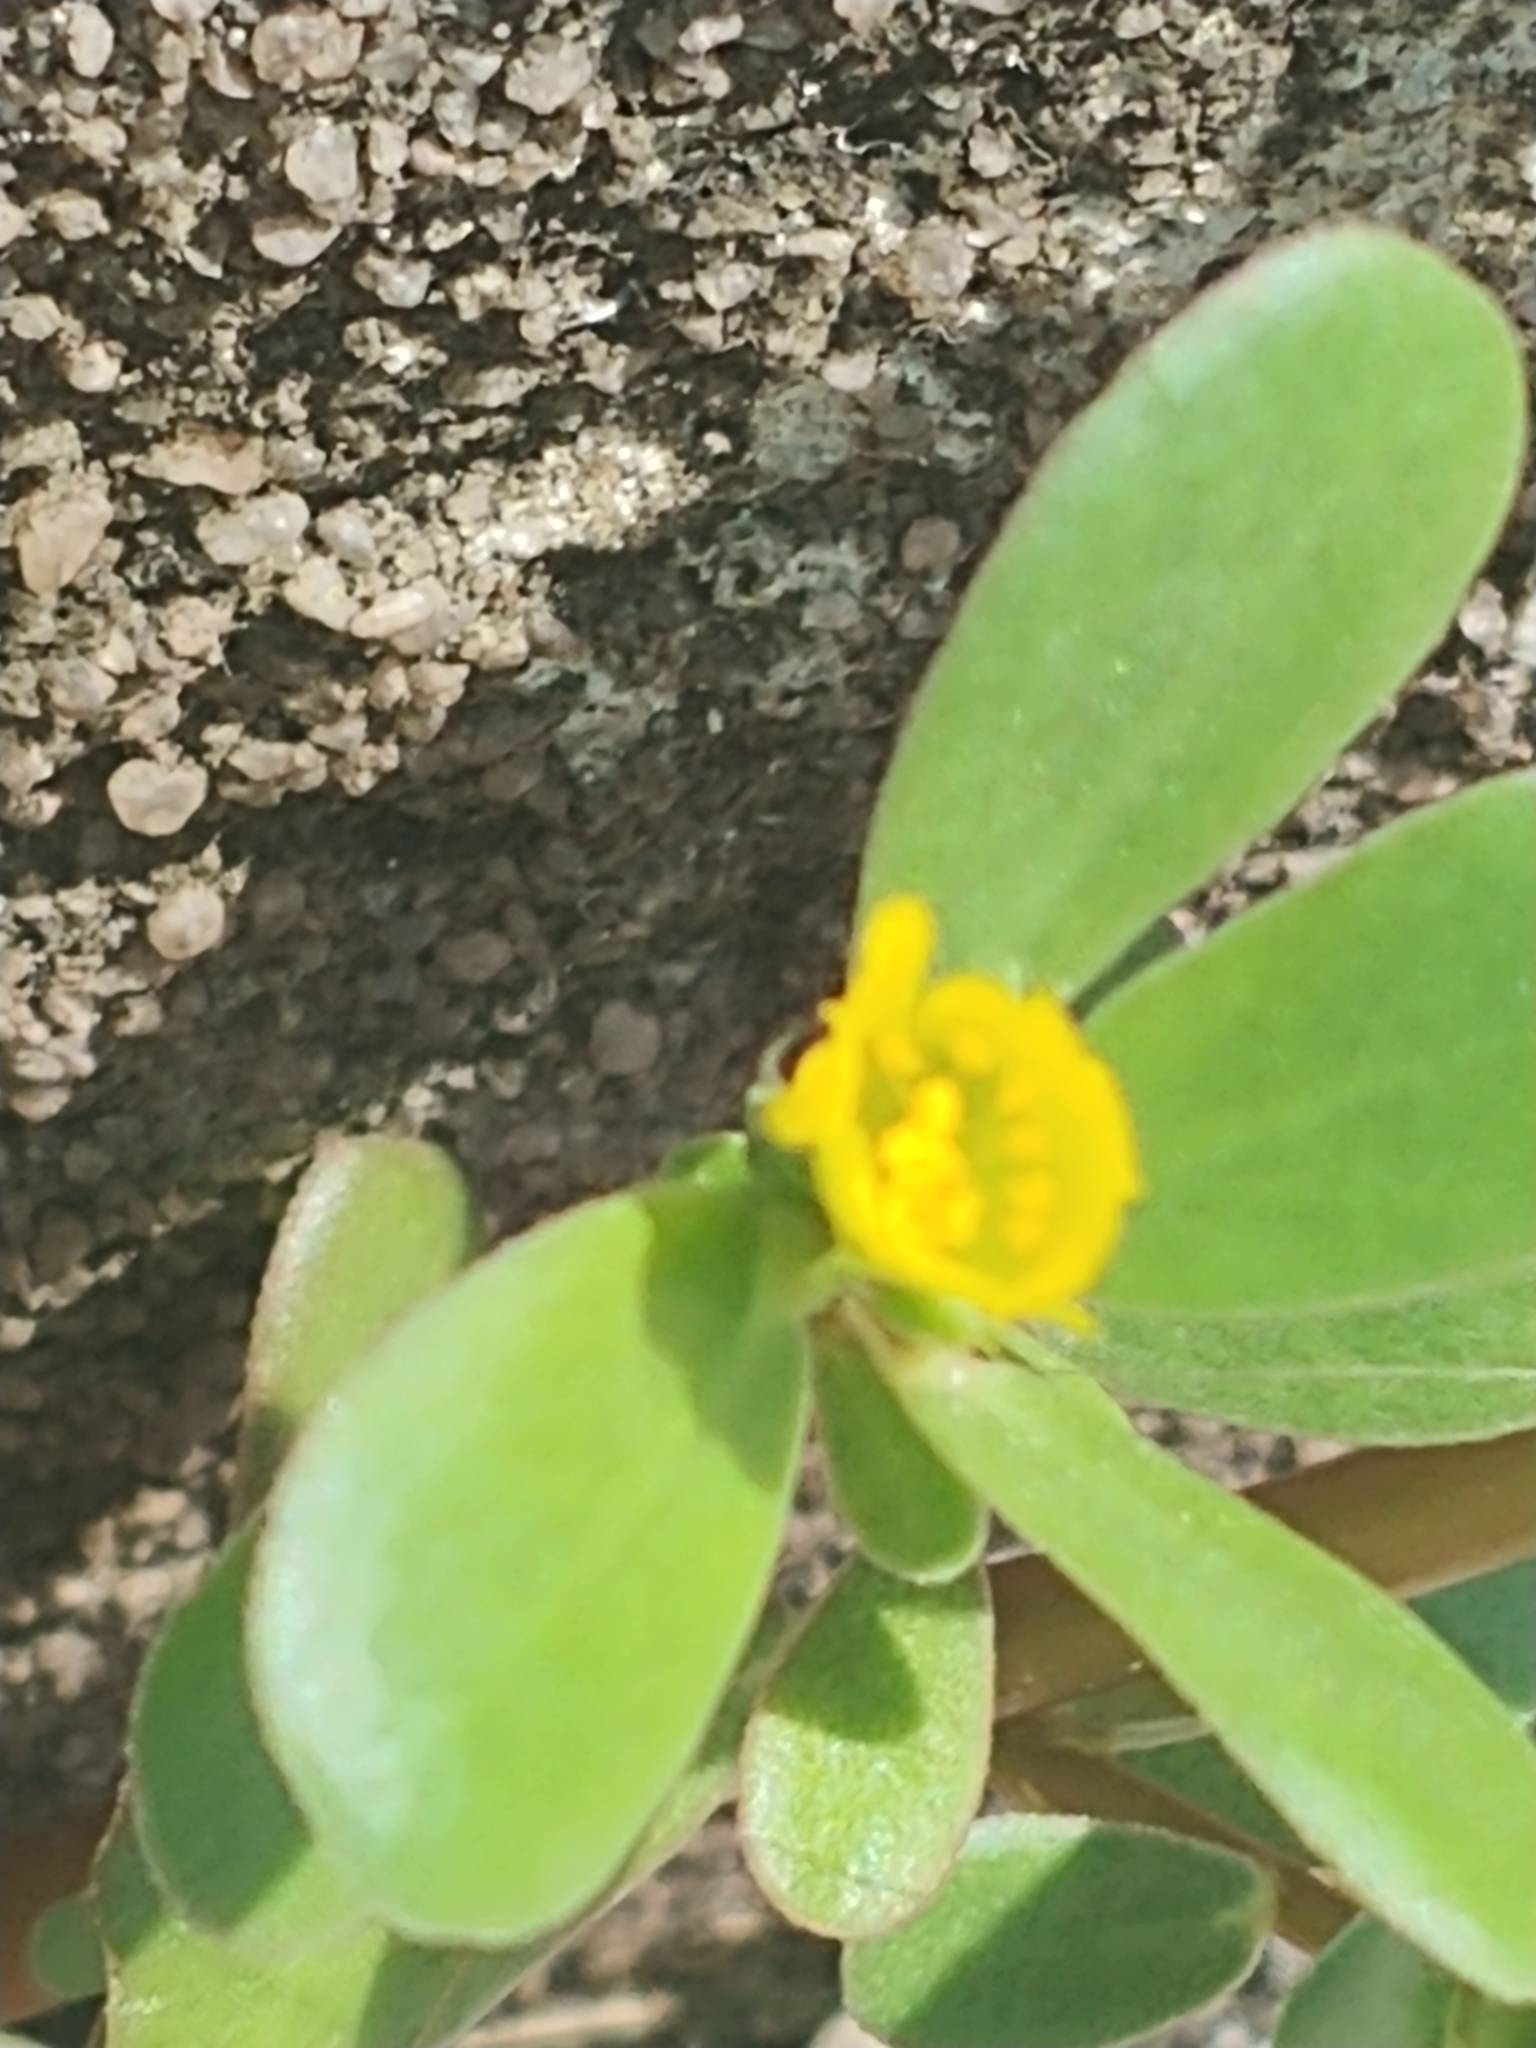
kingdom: Plantae
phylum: Tracheophyta
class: Magnoliopsida
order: Caryophyllales
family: Portulacaceae
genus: Portulaca
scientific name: Portulaca oleracea
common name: Common purslane
